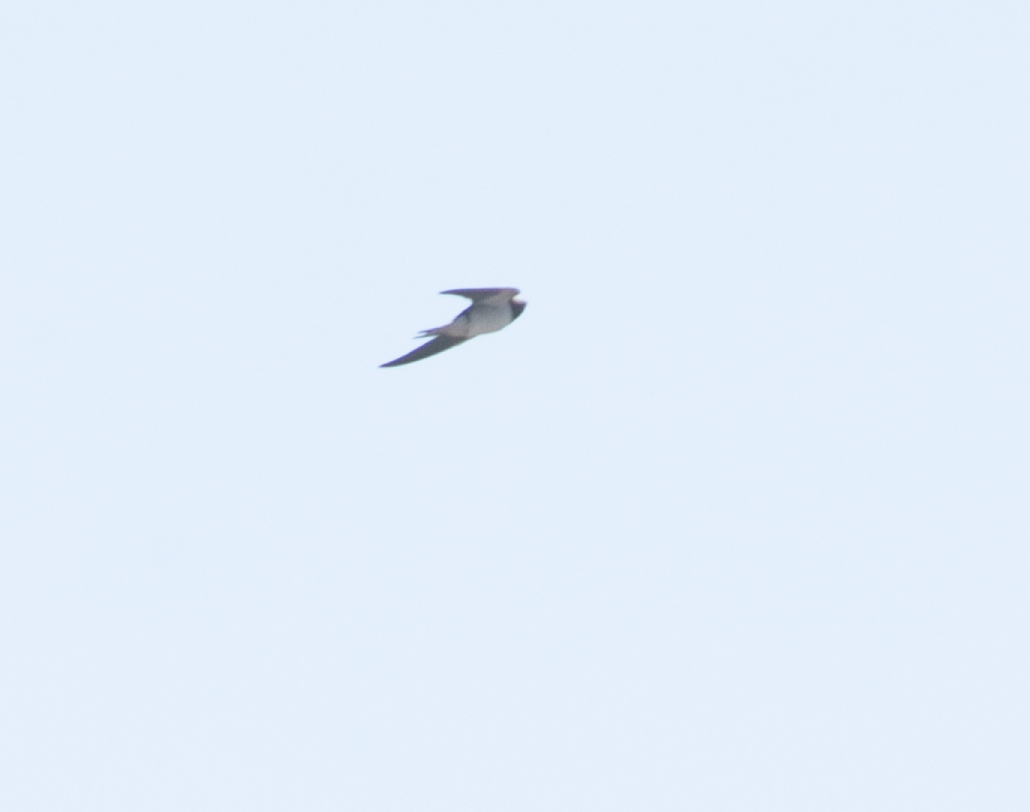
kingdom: Animalia
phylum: Chordata
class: Aves
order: Passeriformes
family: Hirundinidae
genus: Hirundo
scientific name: Hirundo rustica
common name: Barn swallow
